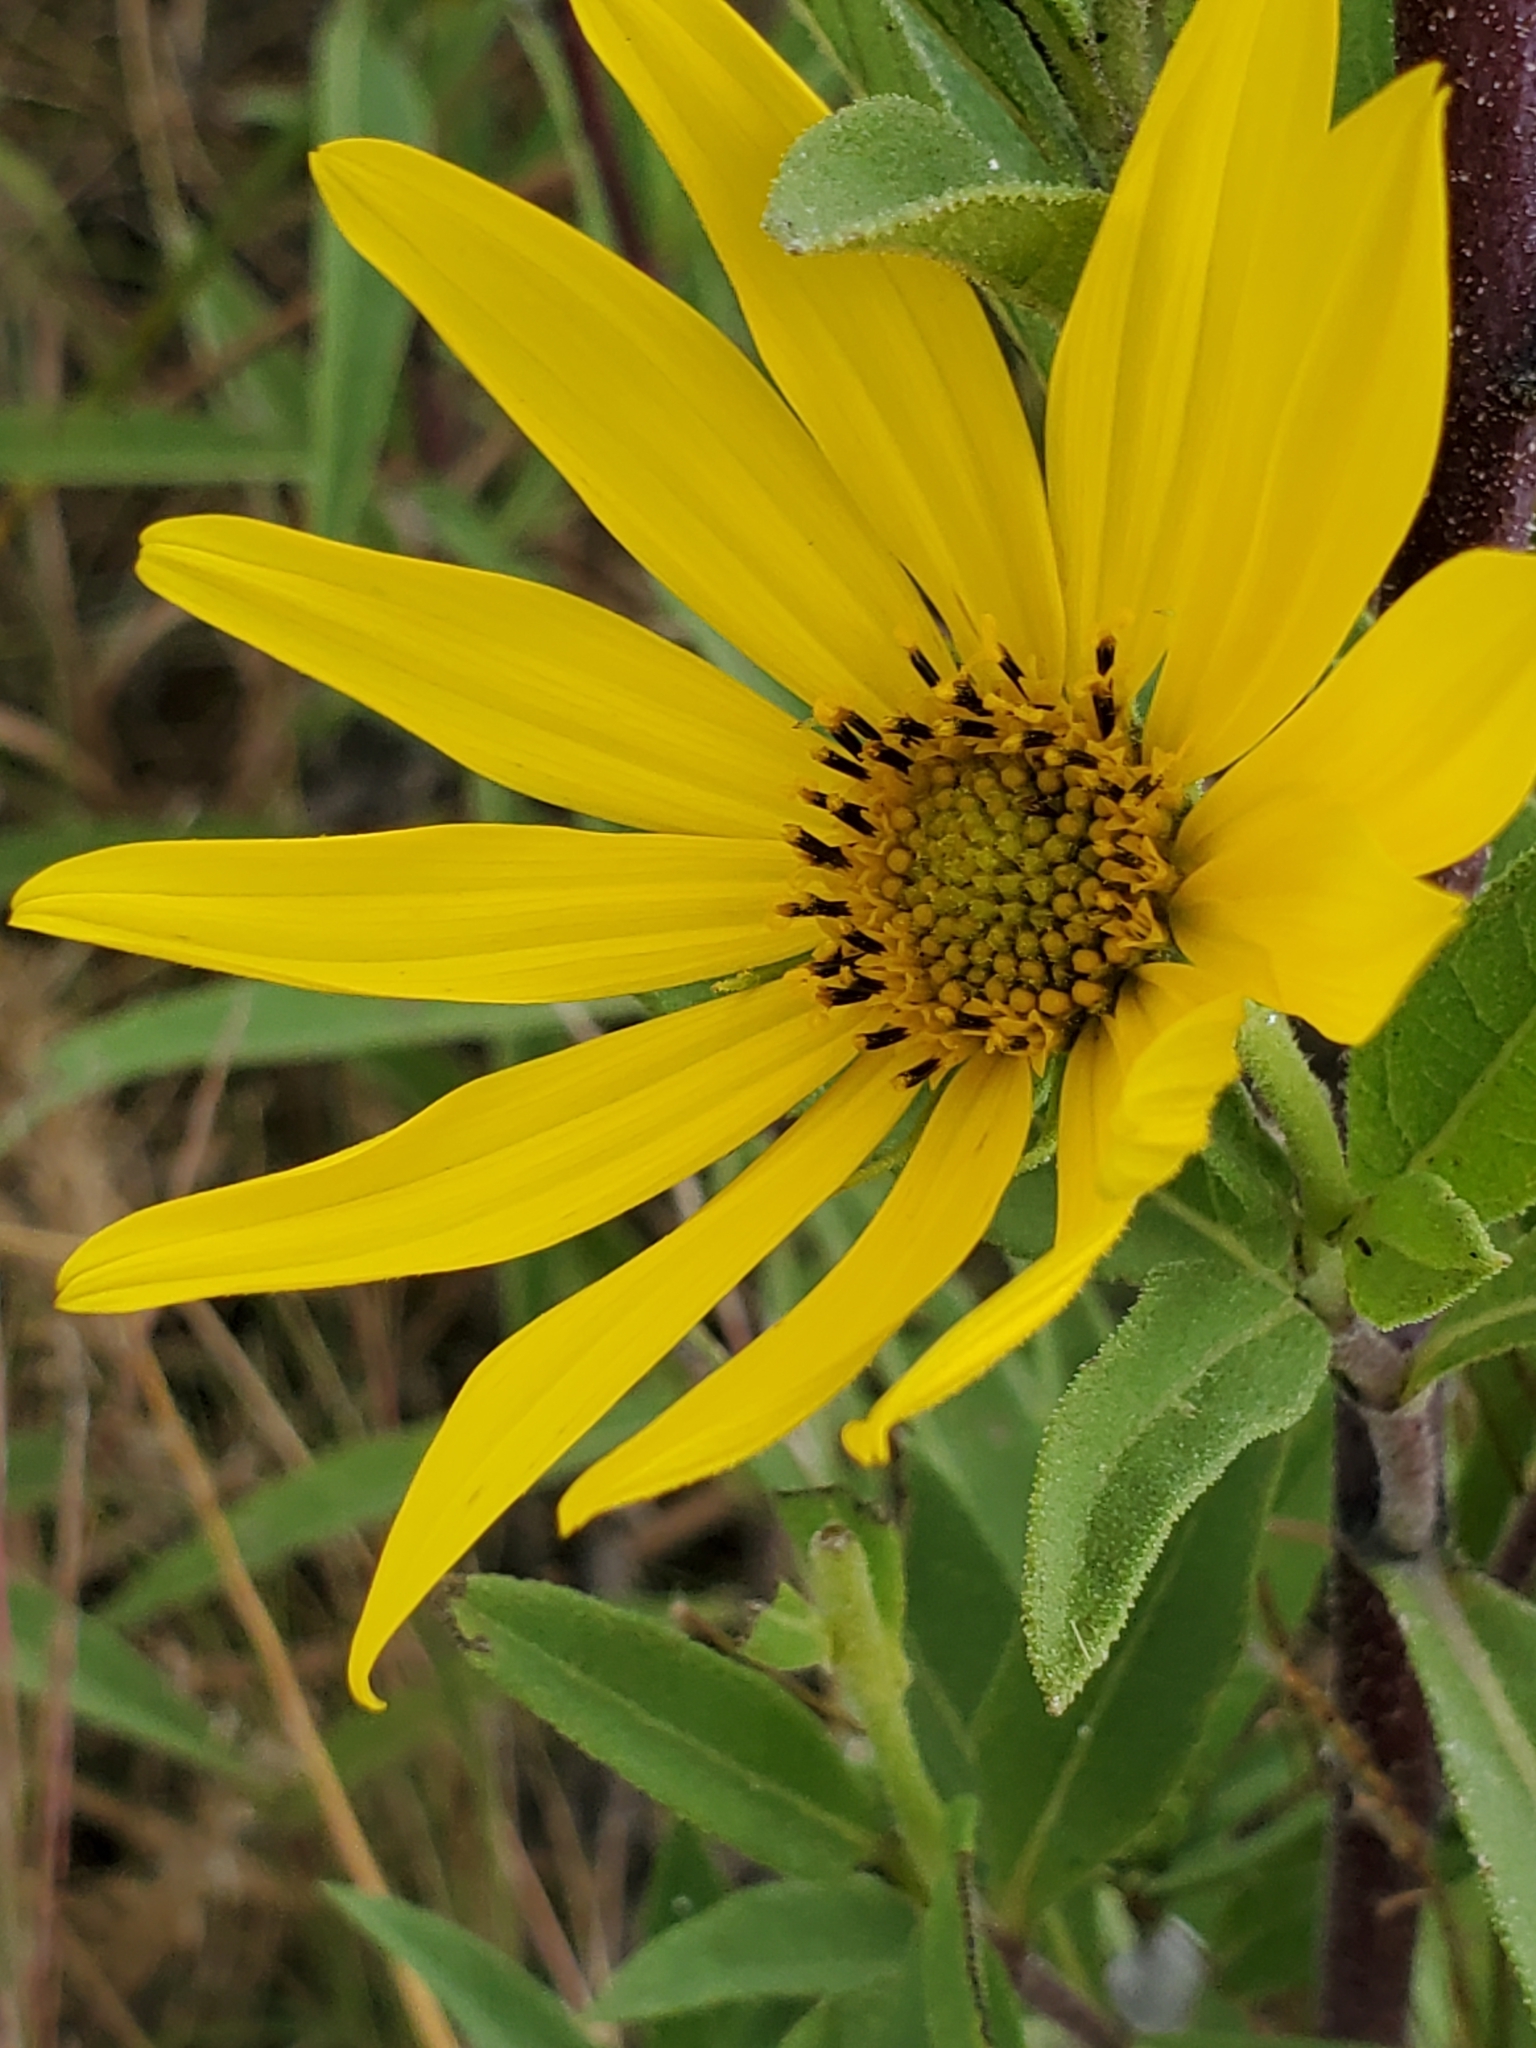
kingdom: Plantae
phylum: Tracheophyta
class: Magnoliopsida
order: Asterales
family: Asteraceae
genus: Helianthus
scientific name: Helianthus maximiliani
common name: Maximilian's sunflower
